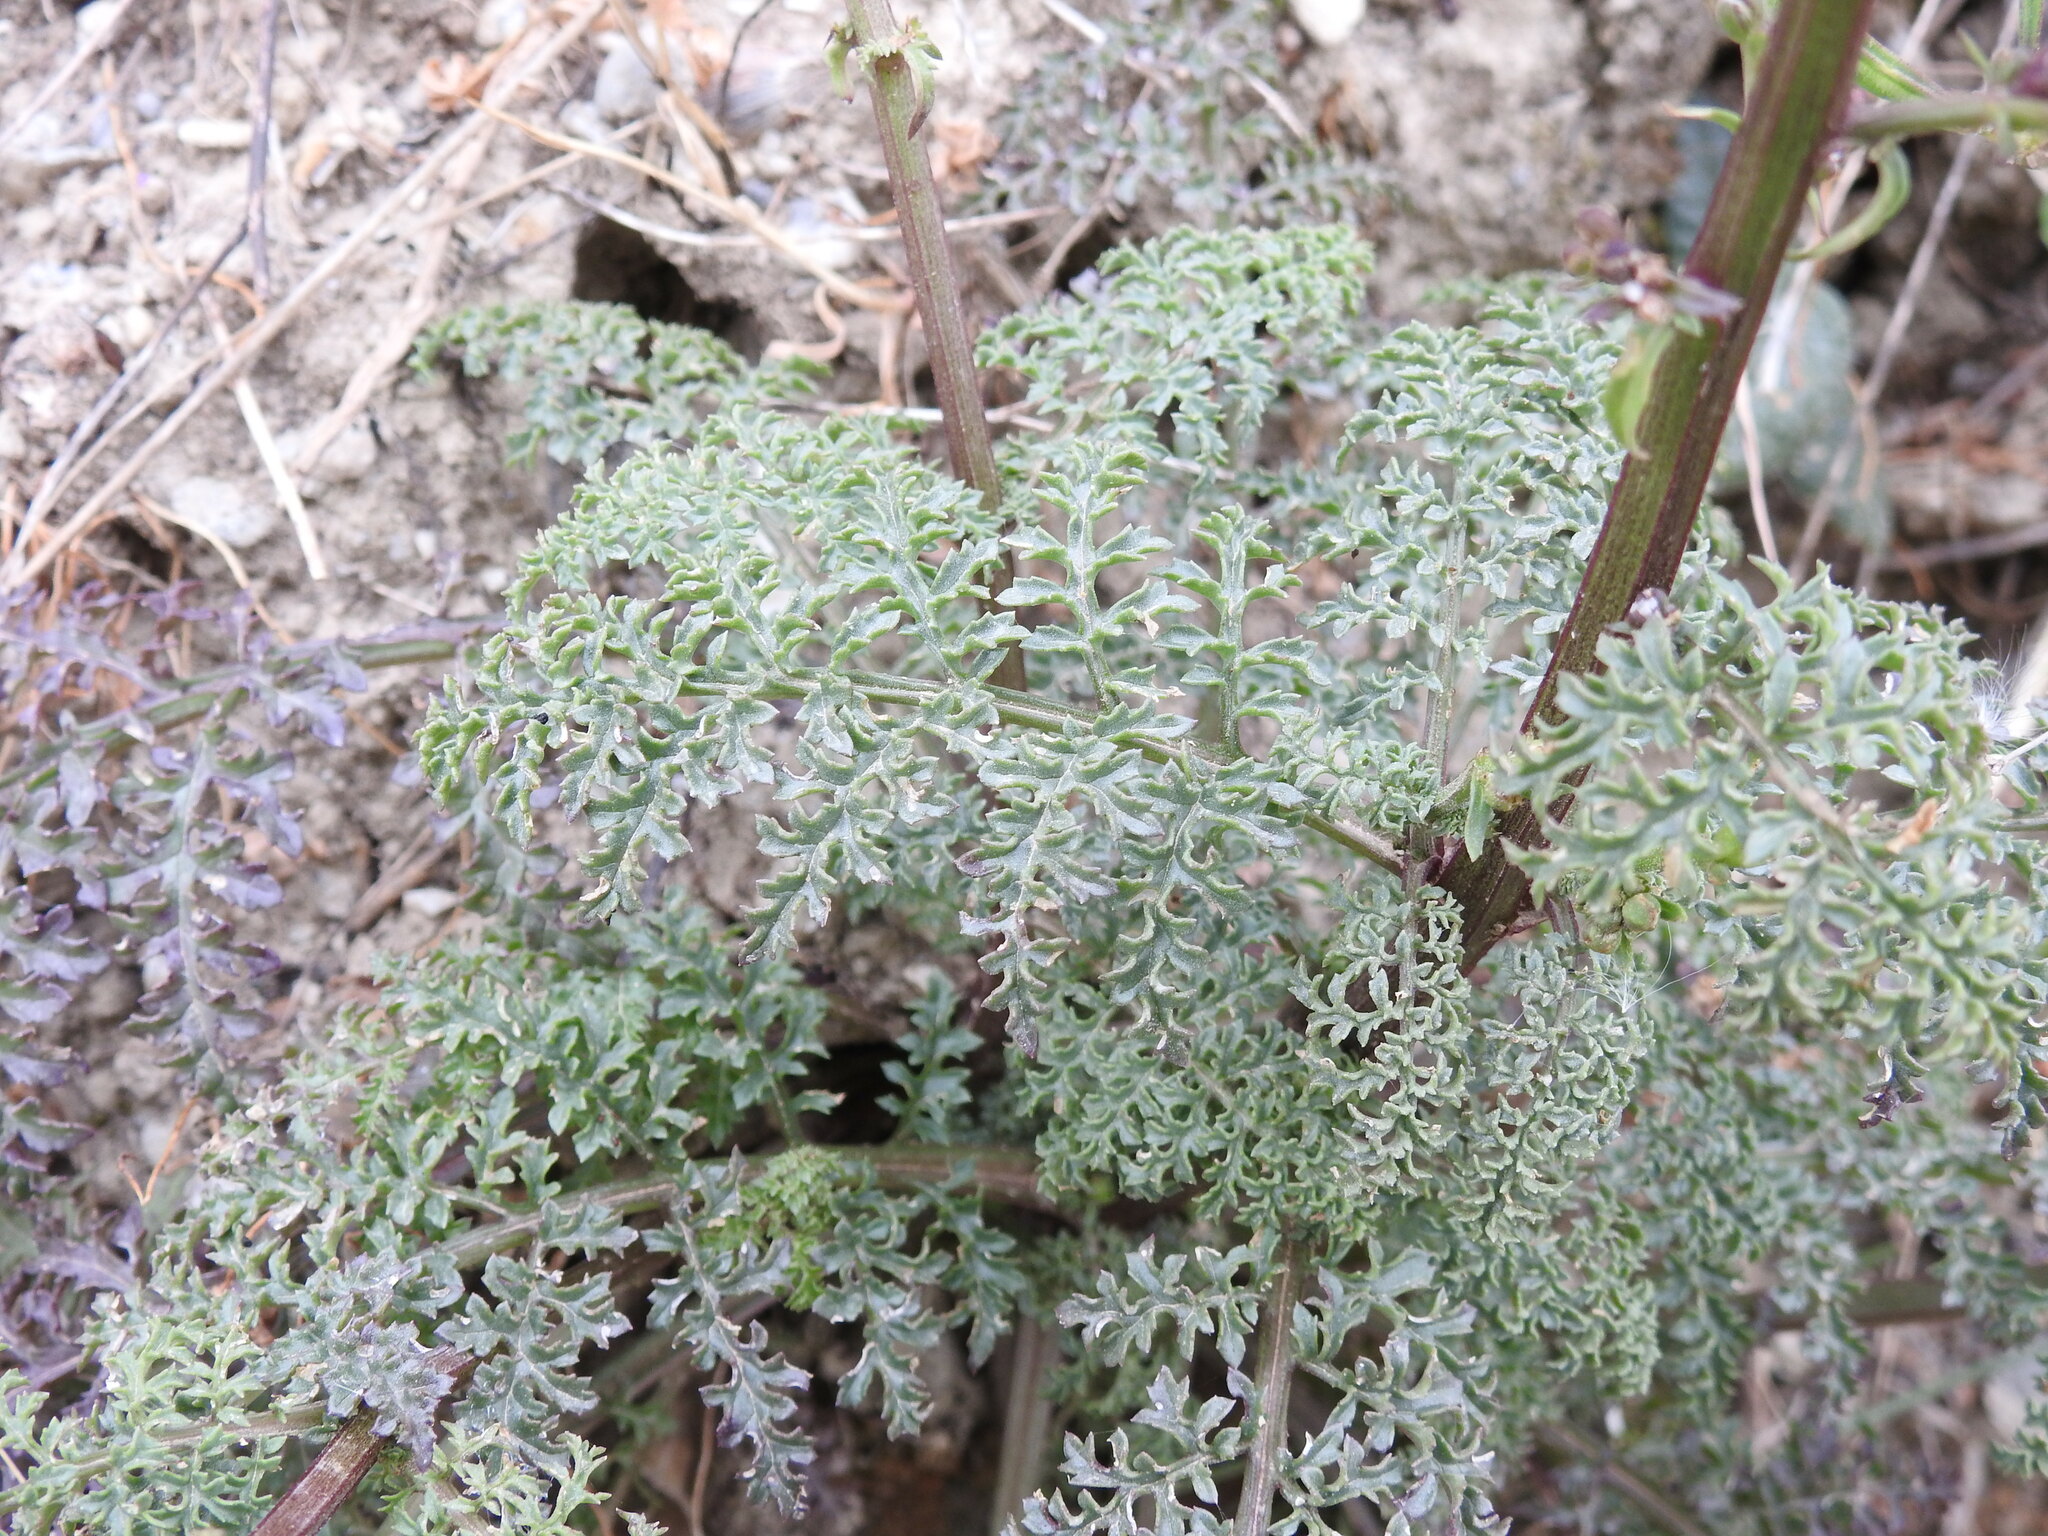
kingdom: Plantae
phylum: Tracheophyta
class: Magnoliopsida
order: Lamiales
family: Scrophulariaceae
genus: Scrophularia
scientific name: Scrophularia lucida
